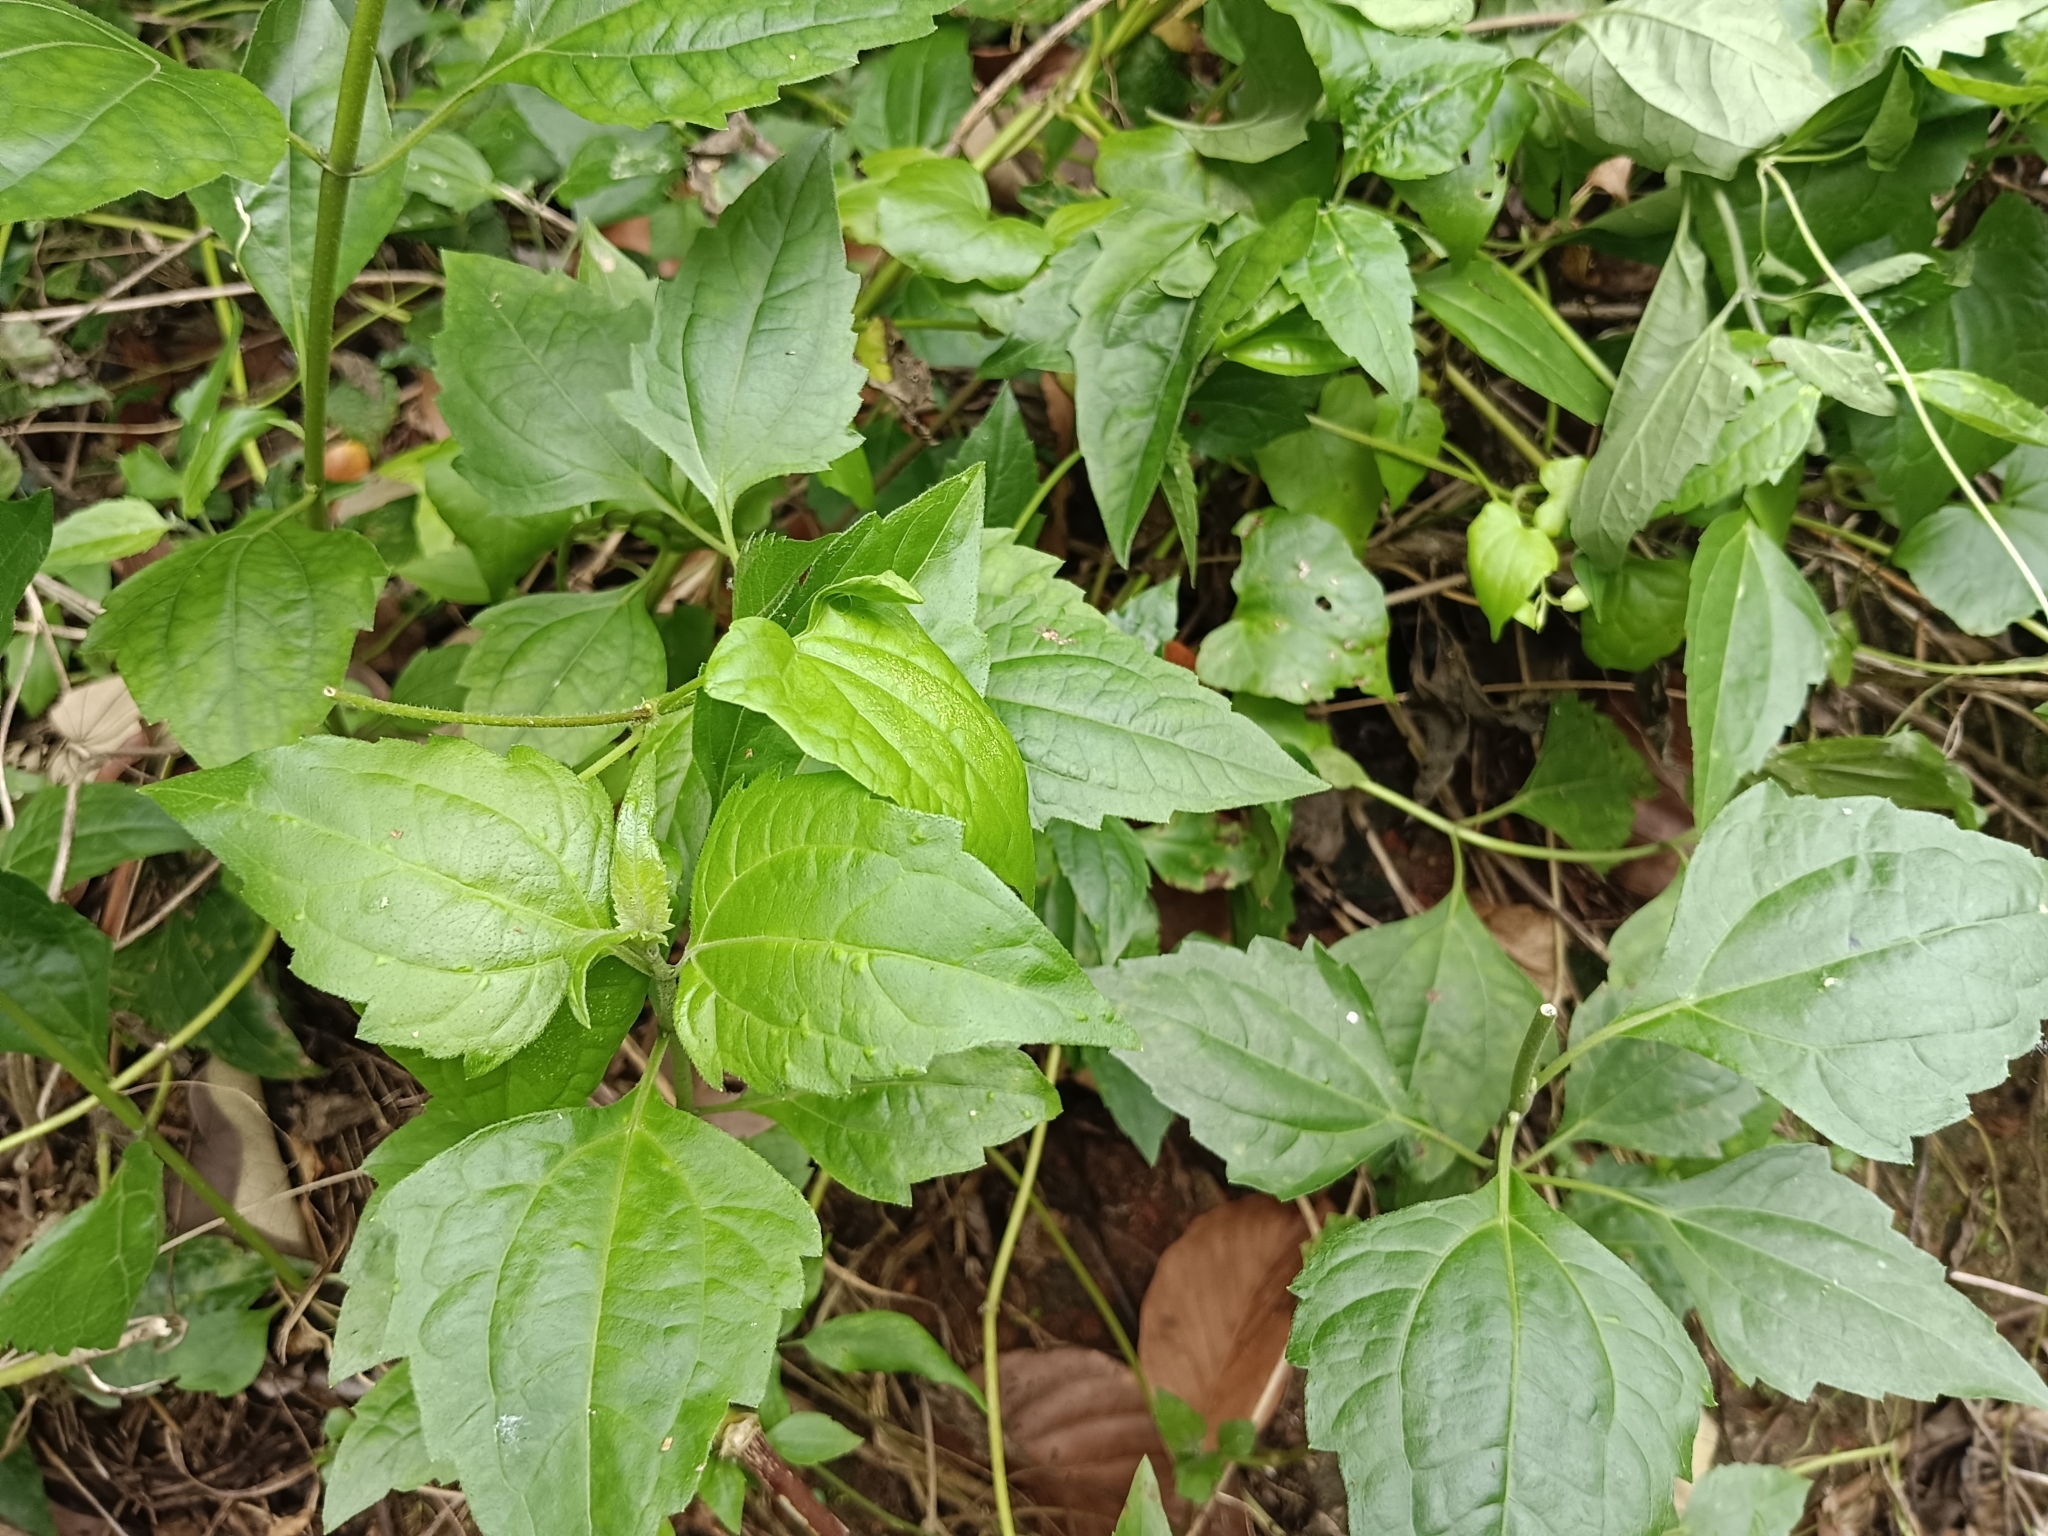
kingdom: Plantae
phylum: Tracheophyta
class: Magnoliopsida
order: Asterales
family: Asteraceae
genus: Chromolaena
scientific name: Chromolaena odorata
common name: Siamweed
